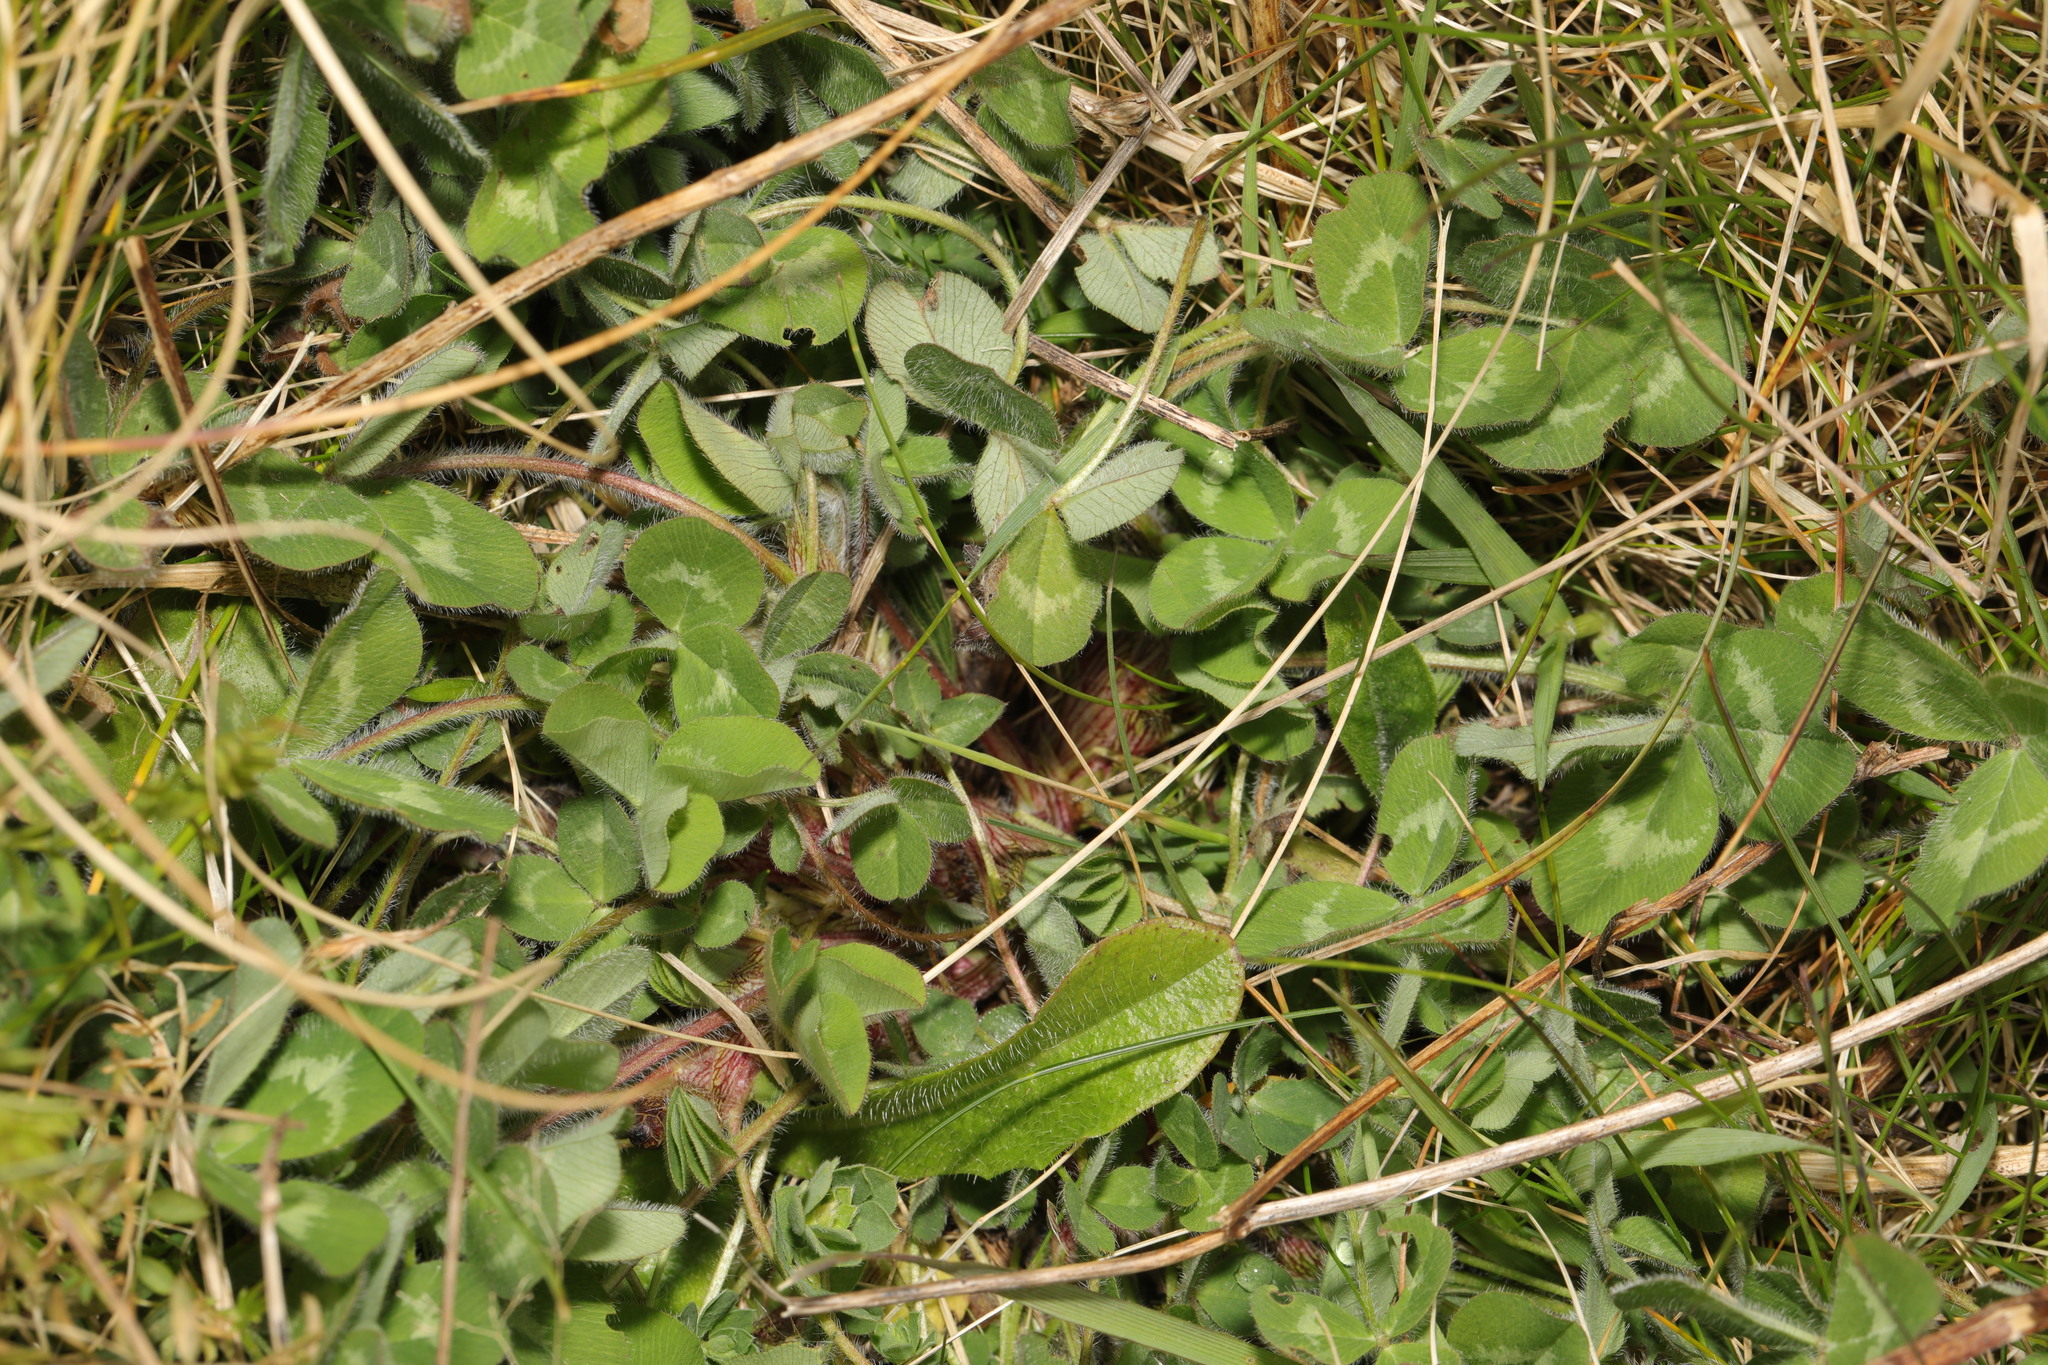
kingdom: Plantae
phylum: Tracheophyta
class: Magnoliopsida
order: Fabales
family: Fabaceae
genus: Trifolium
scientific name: Trifolium pratense
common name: Red clover
